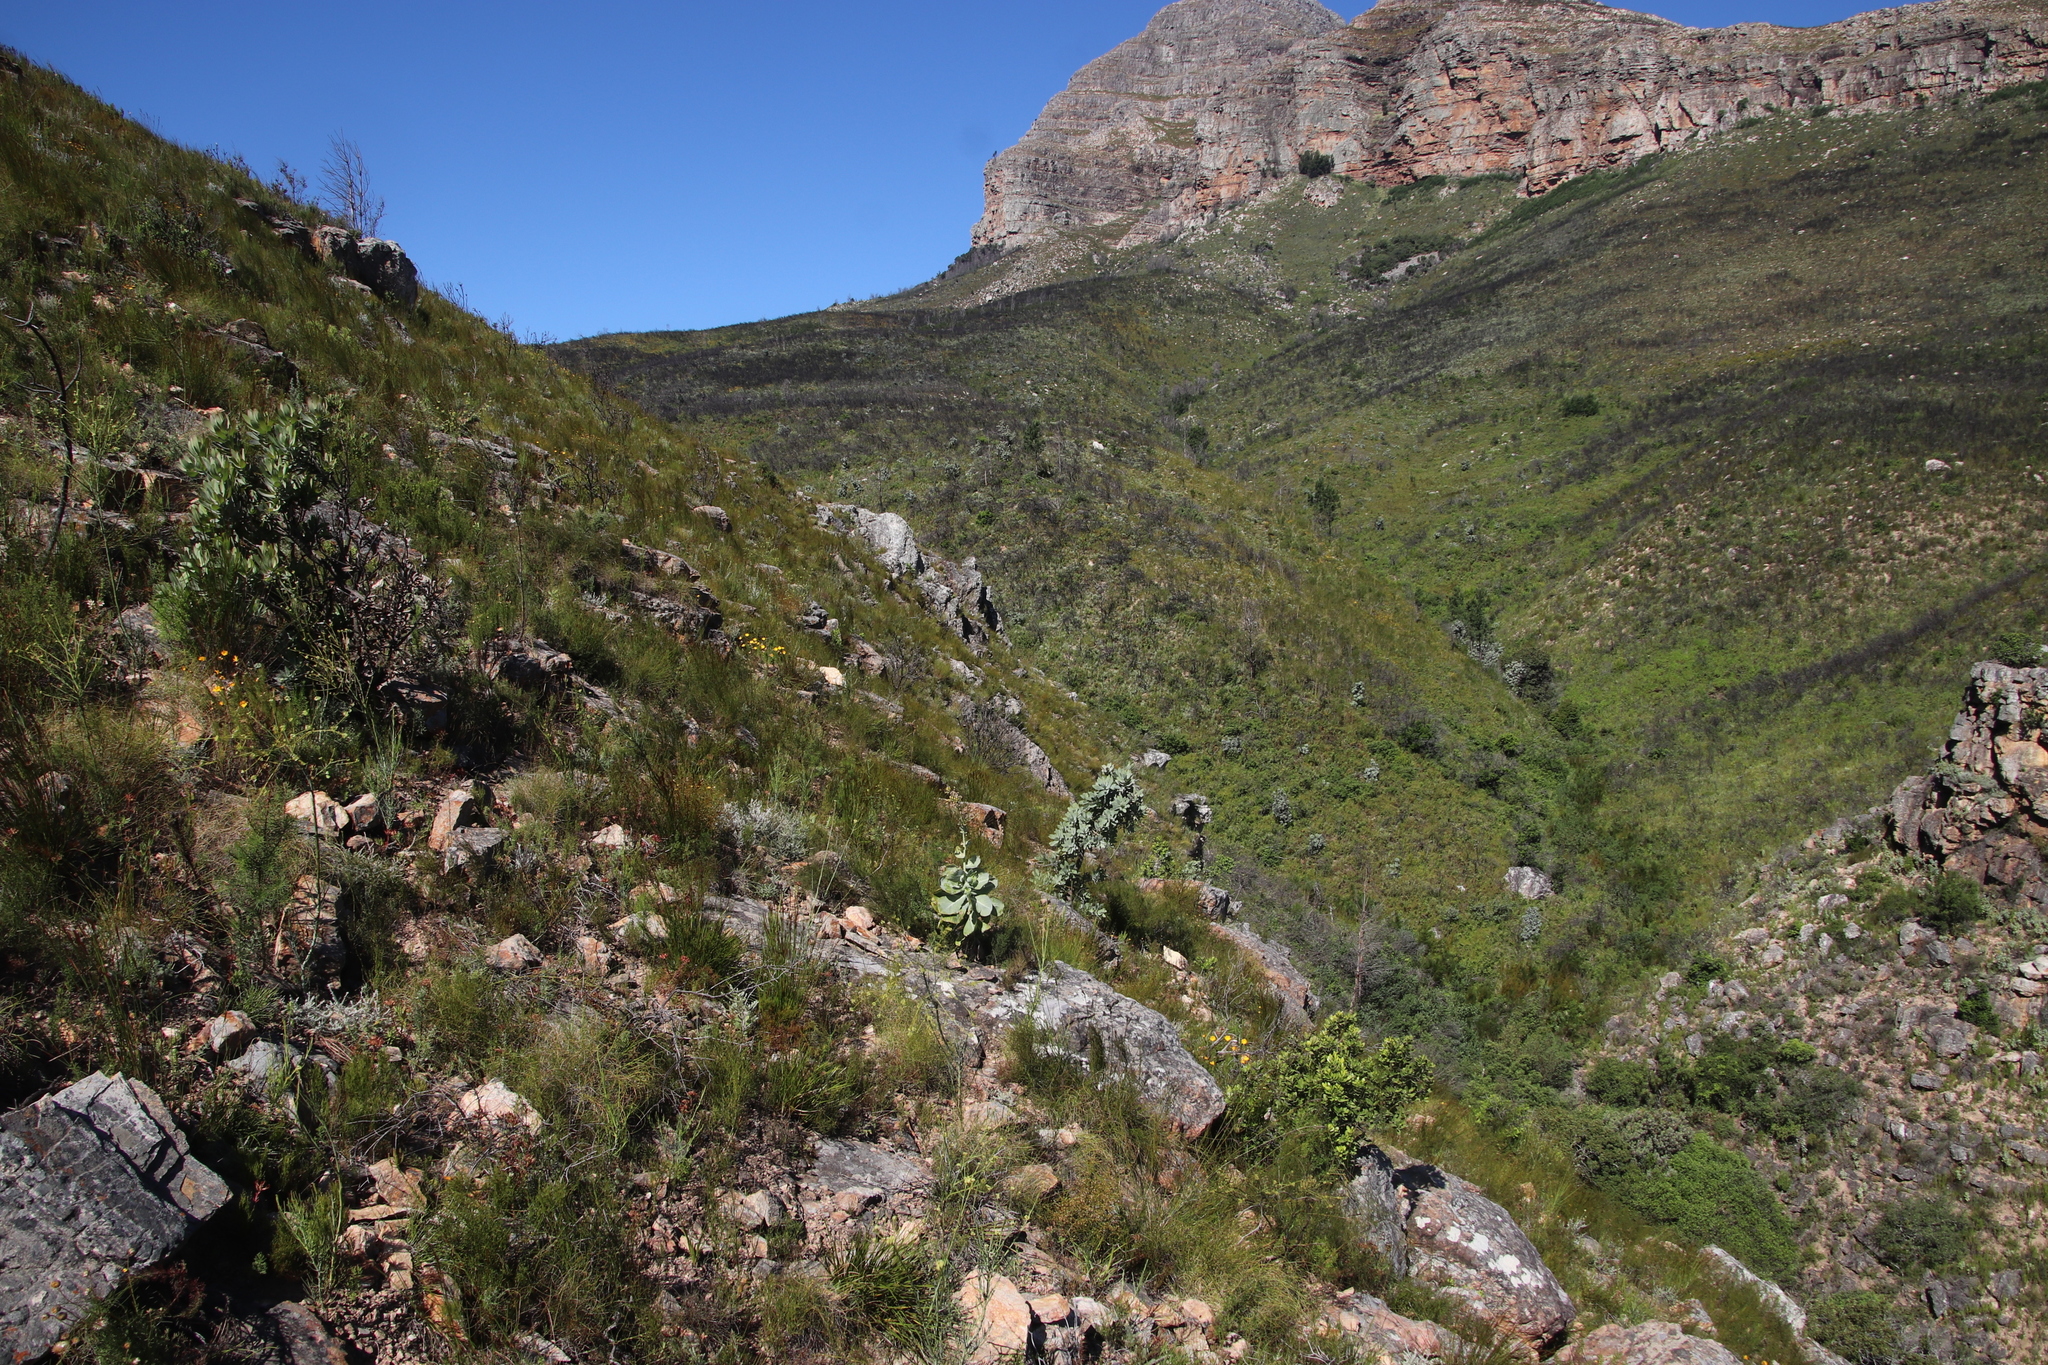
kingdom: Plantae
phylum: Tracheophyta
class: Magnoliopsida
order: Proteales
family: Proteaceae
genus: Protea
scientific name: Protea nitida
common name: Tree protea
